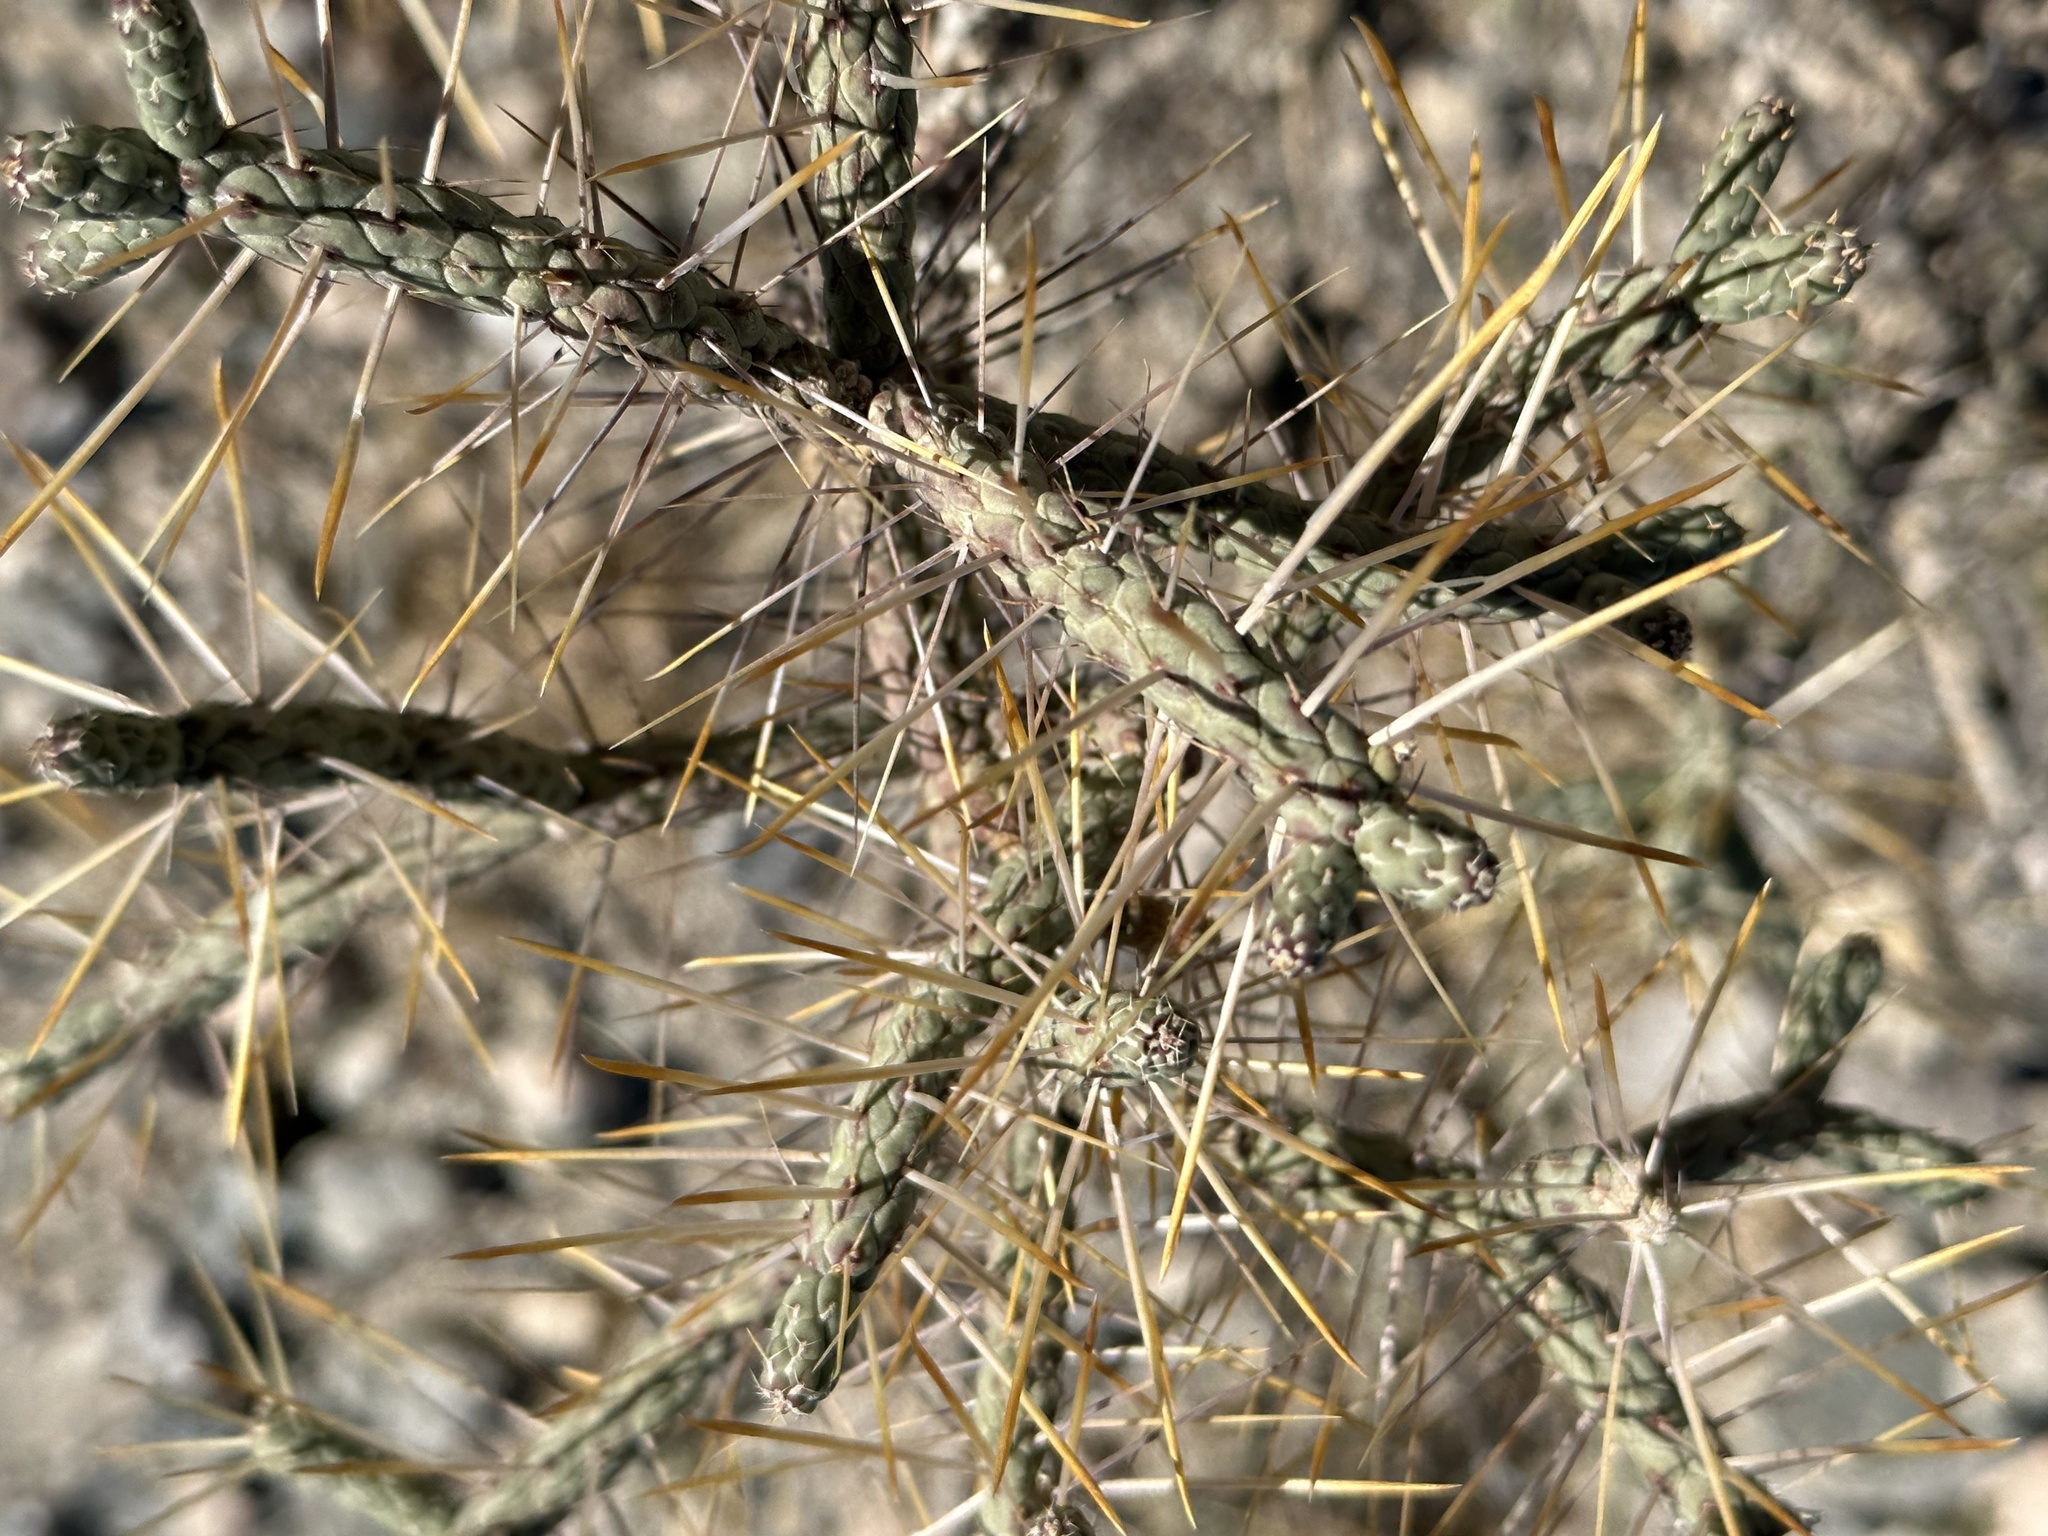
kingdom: Plantae
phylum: Tracheophyta
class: Magnoliopsida
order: Caryophyllales
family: Cactaceae
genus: Cylindropuntia
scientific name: Cylindropuntia ramosissima
